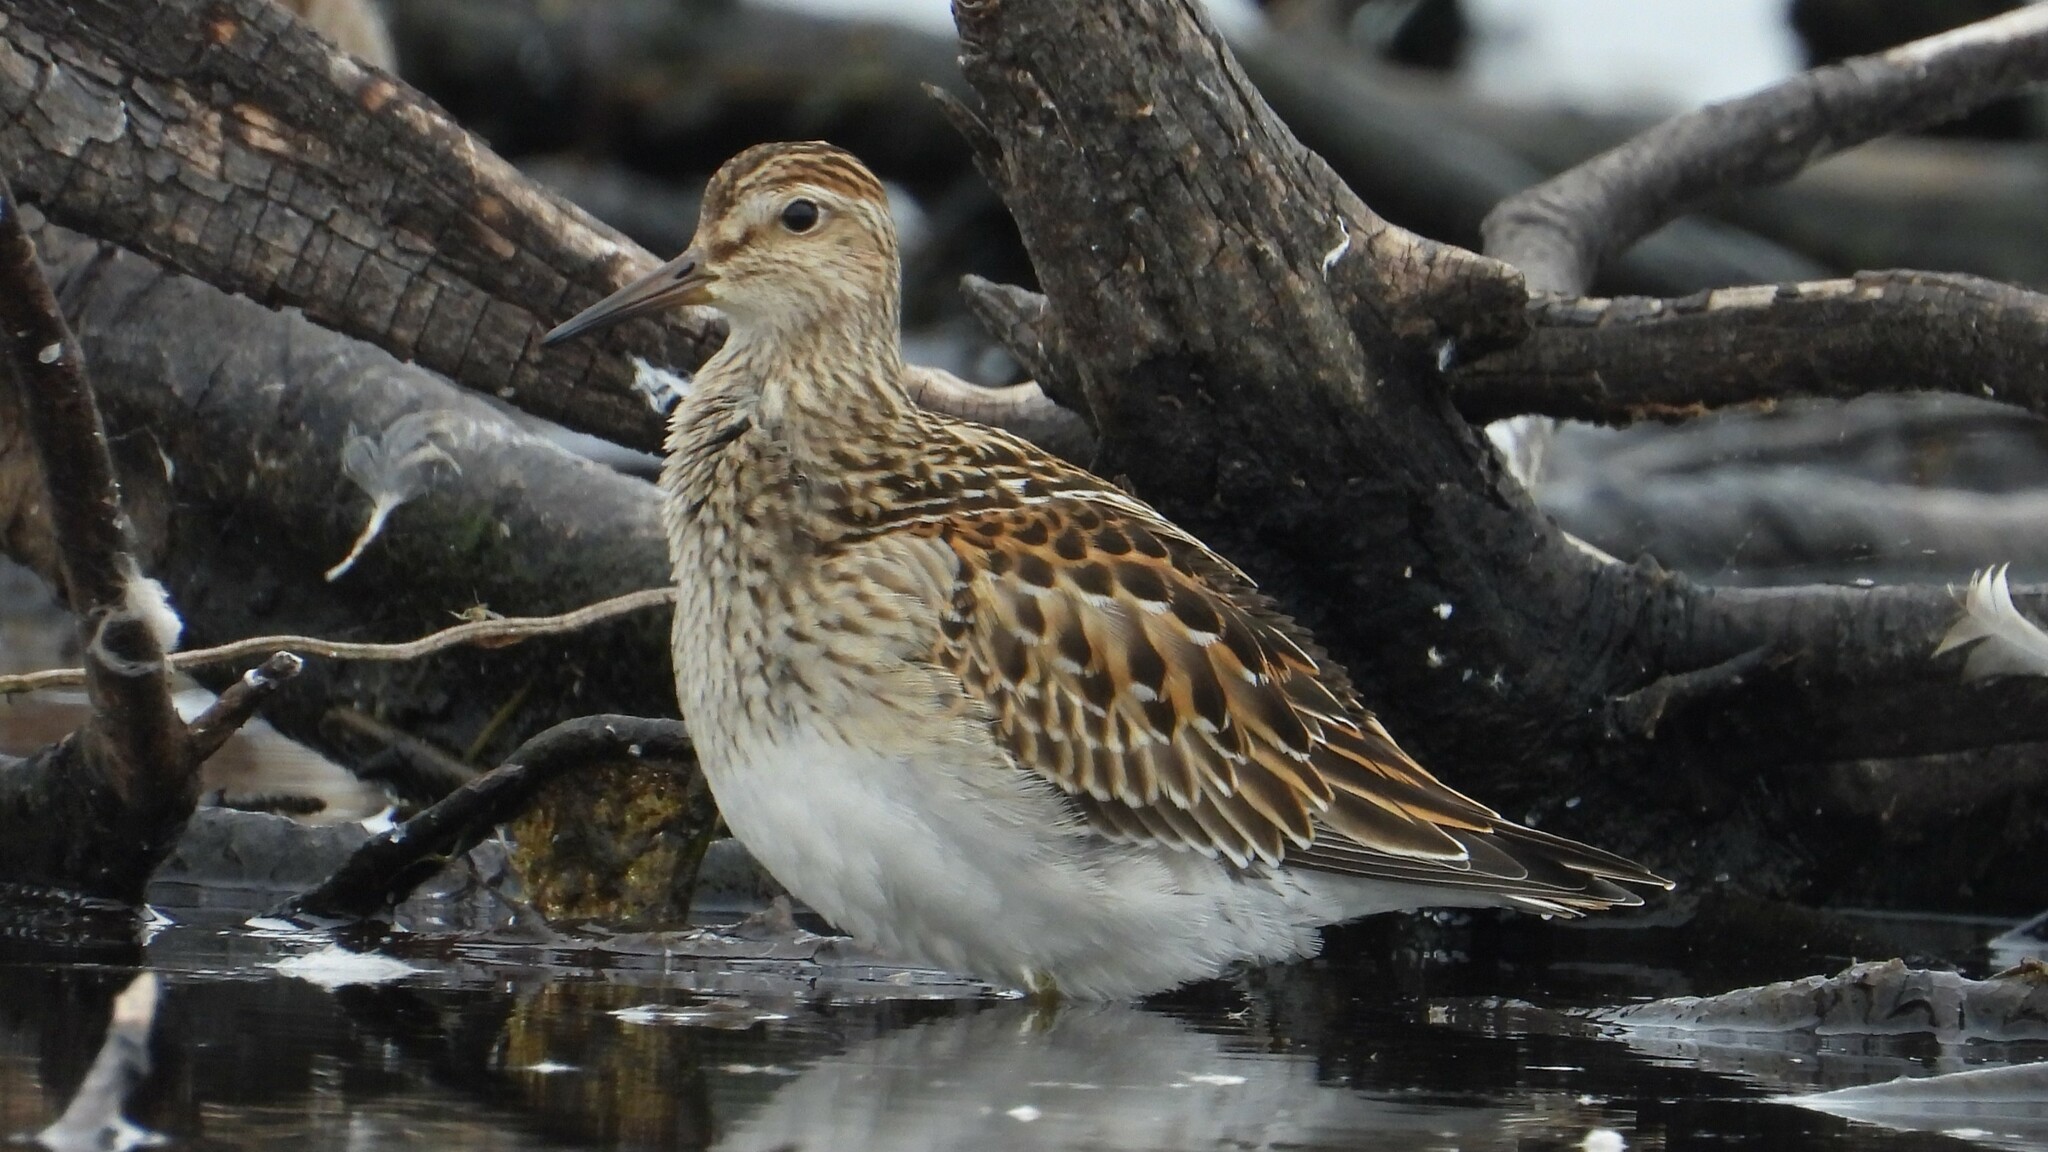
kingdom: Animalia
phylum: Chordata
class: Aves
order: Charadriiformes
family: Scolopacidae
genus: Calidris
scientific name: Calidris melanotos
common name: Pectoral sandpiper
